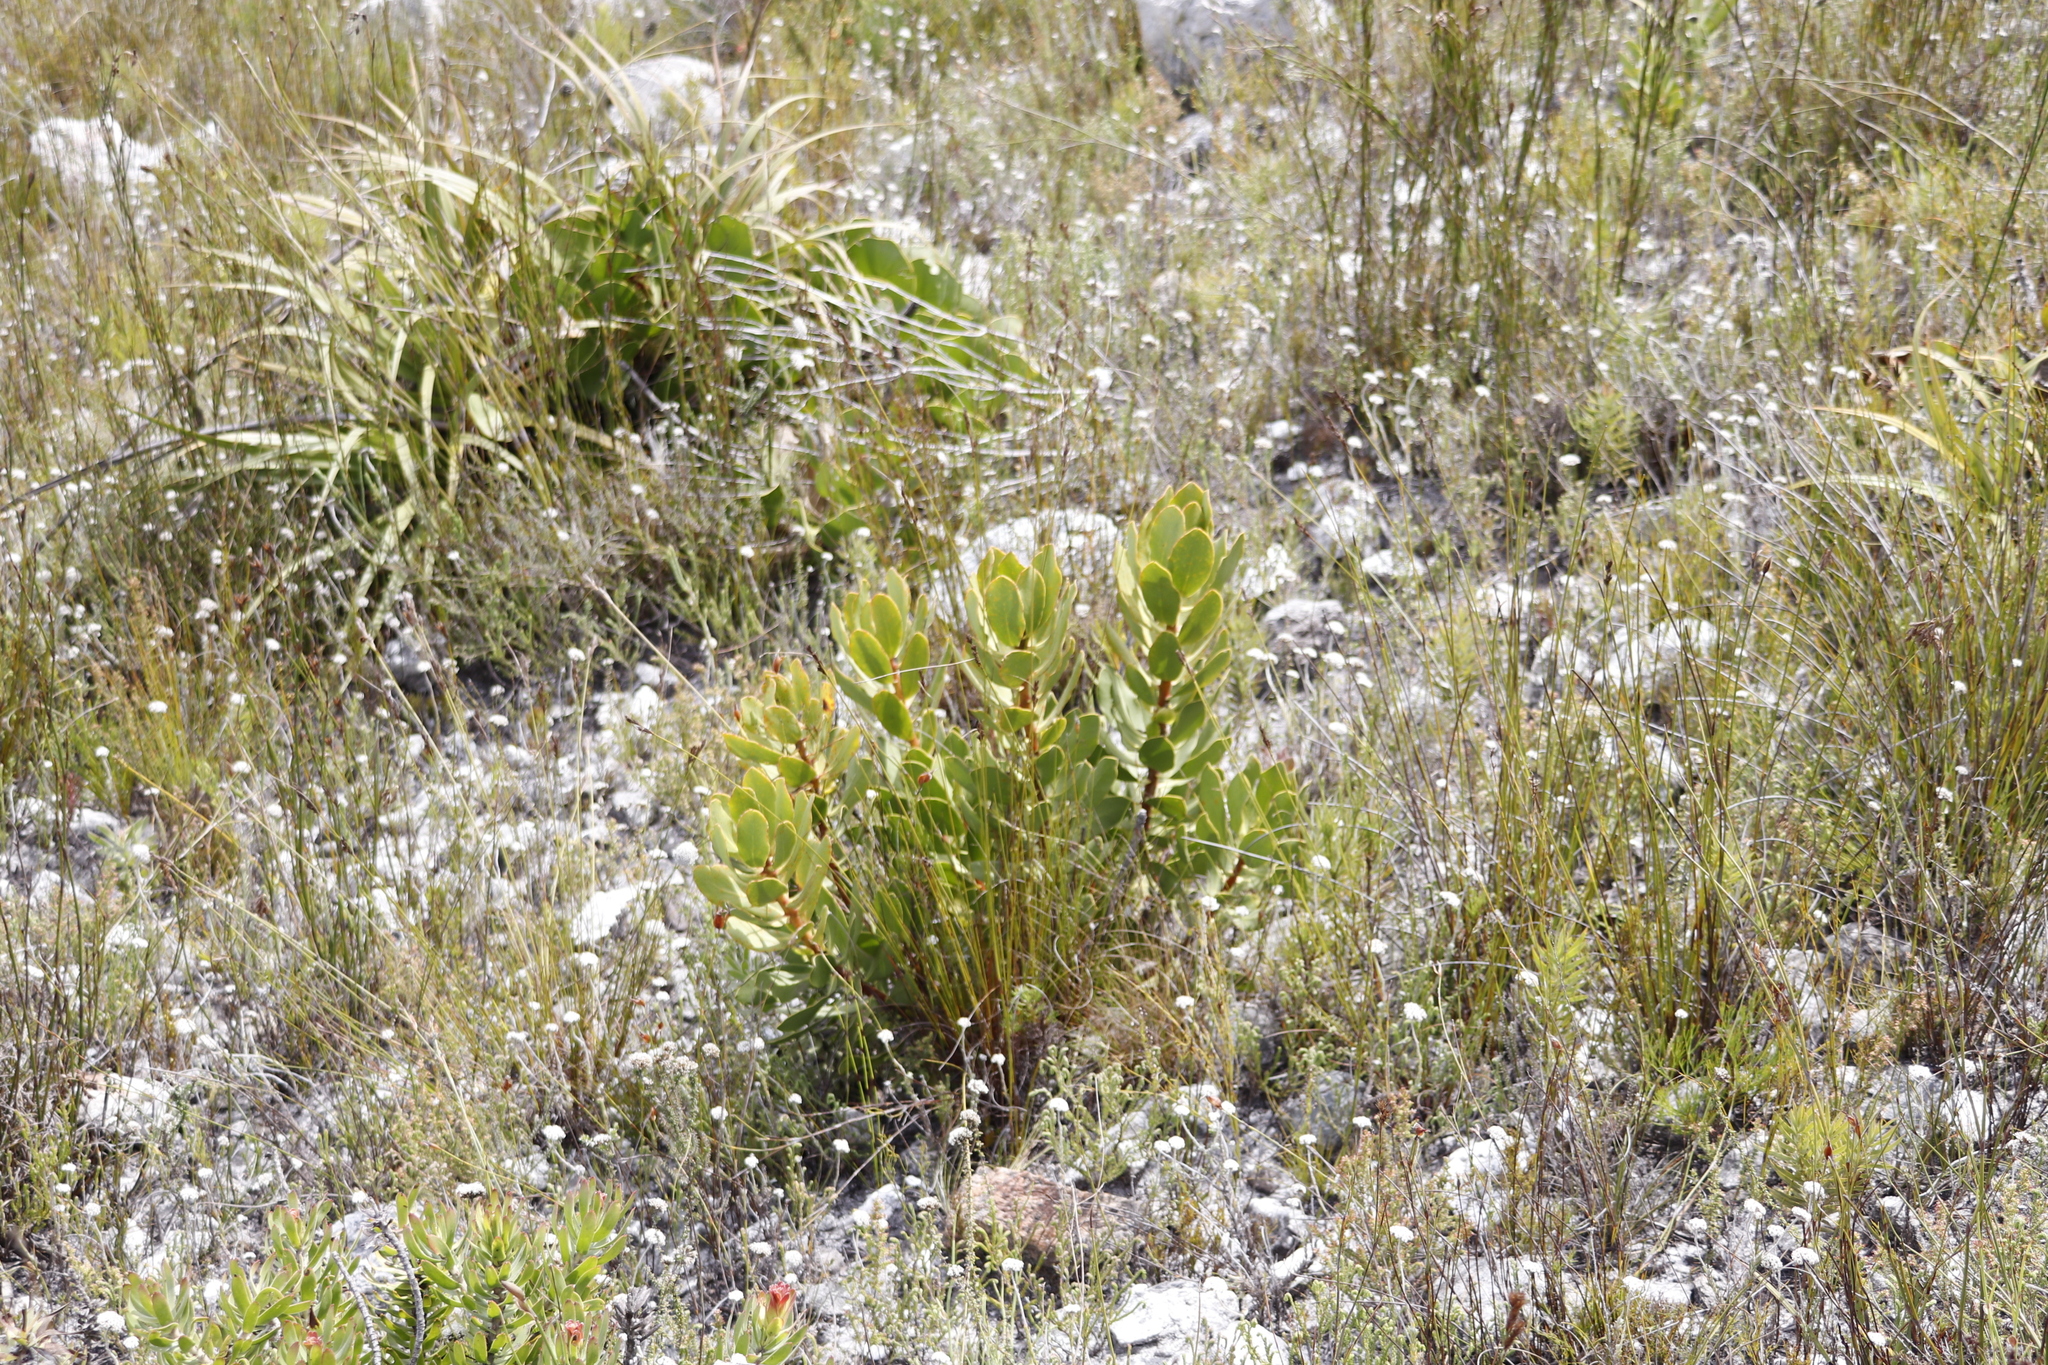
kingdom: Plantae
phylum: Tracheophyta
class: Magnoliopsida
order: Proteales
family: Proteaceae
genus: Protea
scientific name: Protea speciosa
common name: Brown-beard sugarbush
